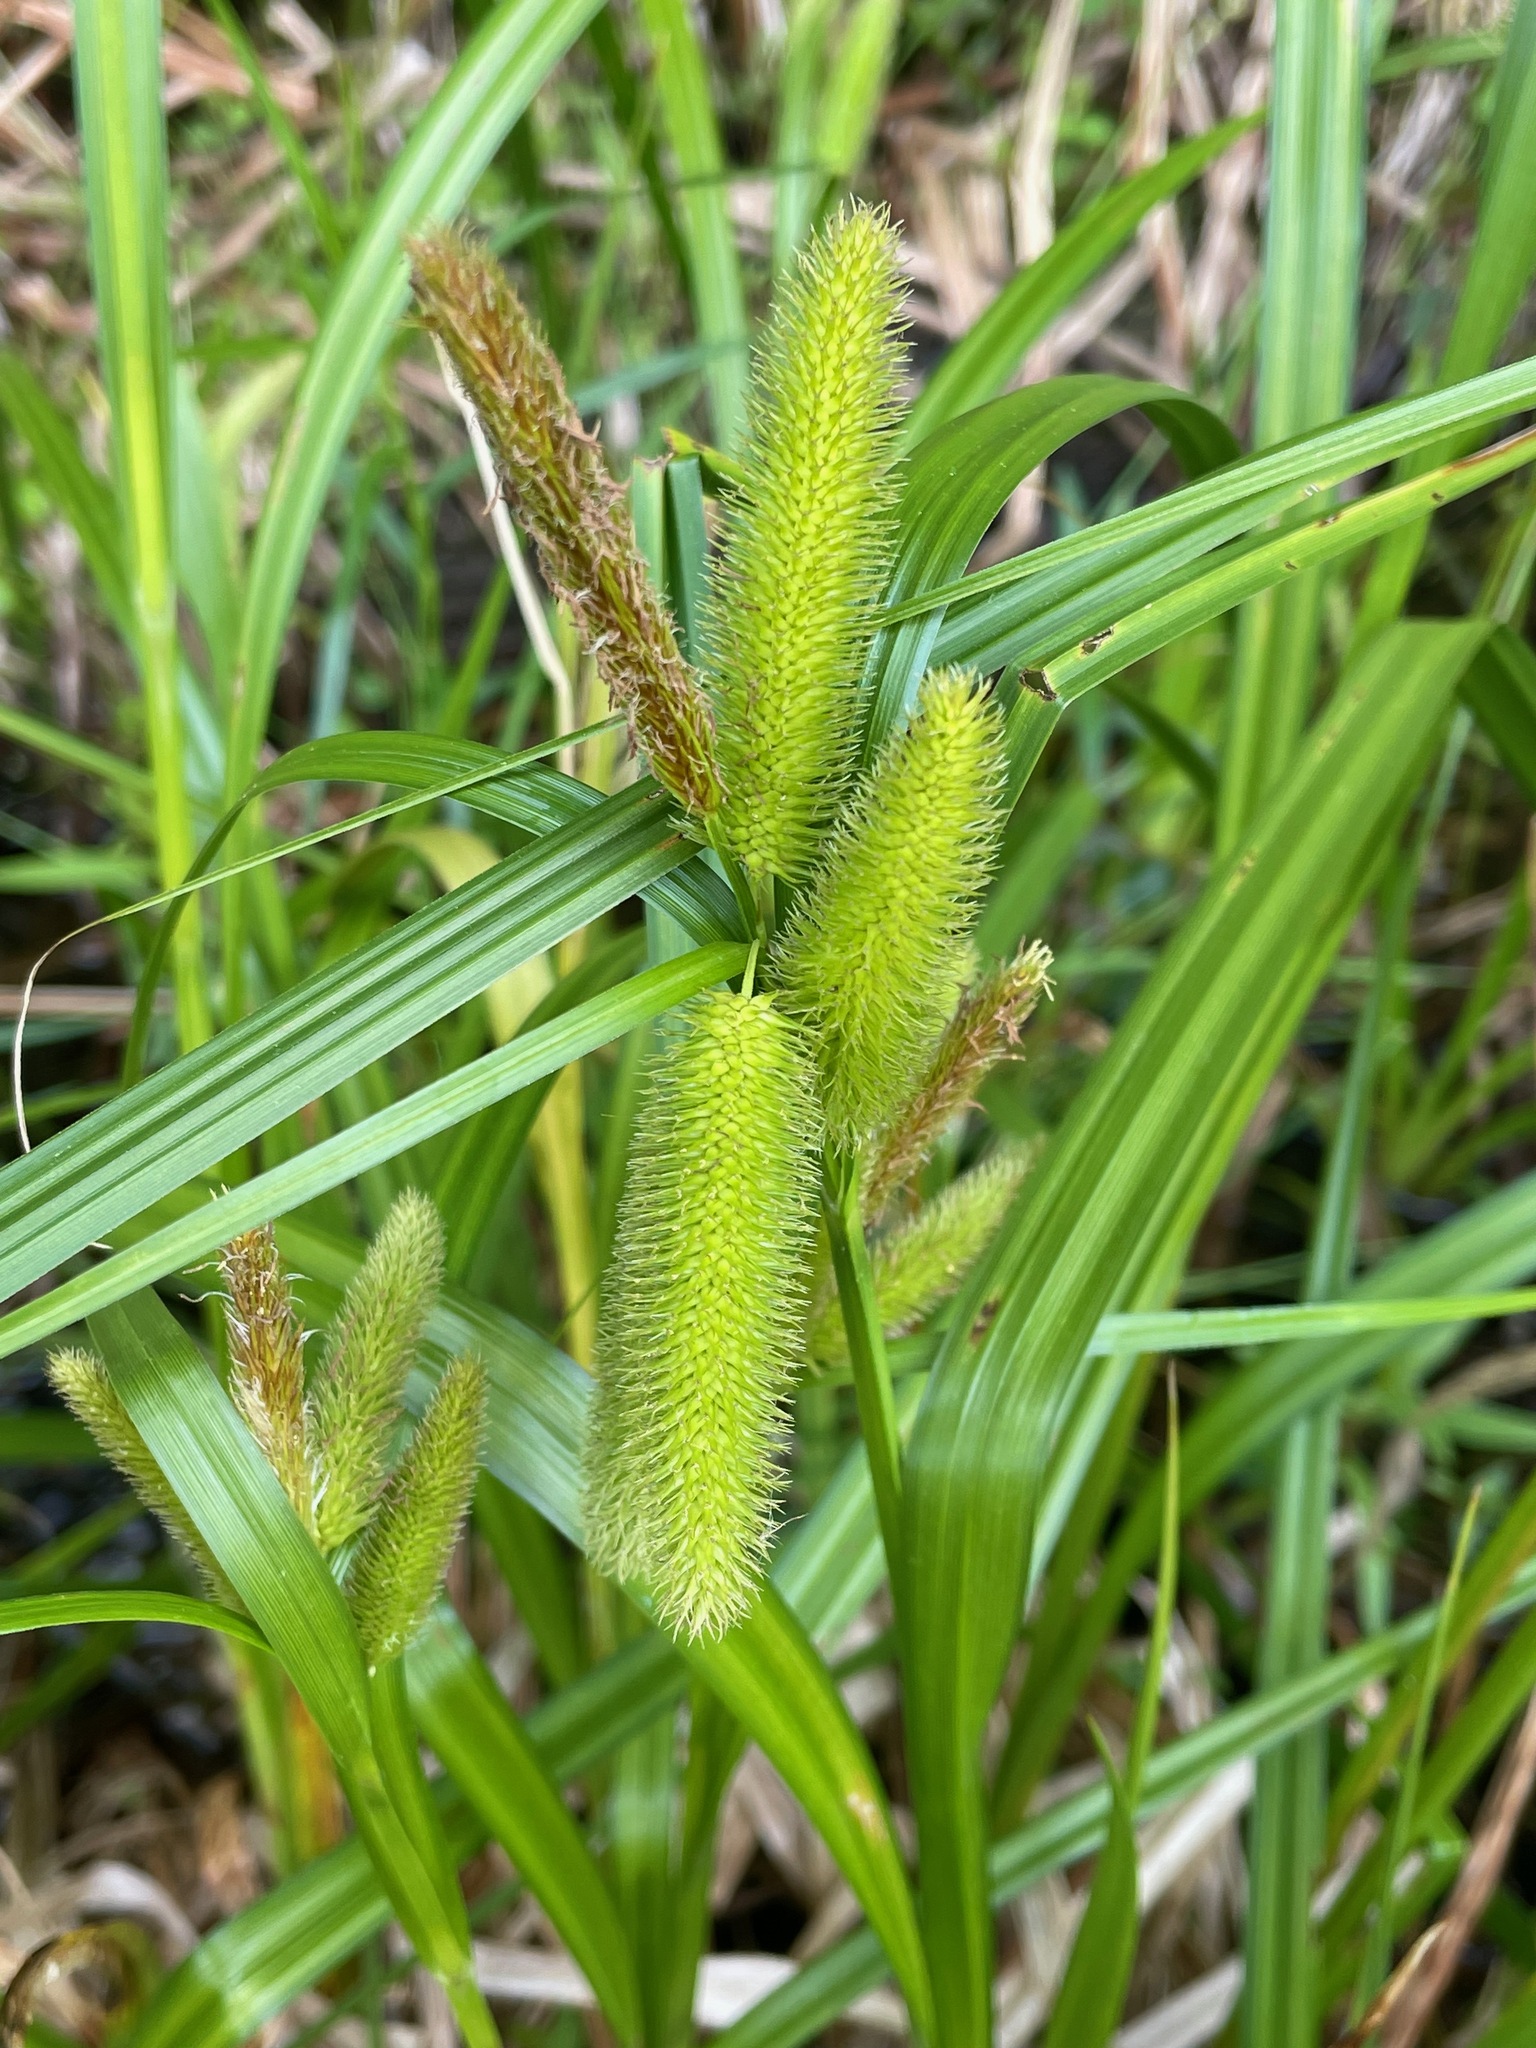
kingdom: Plantae
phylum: Tracheophyta
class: Liliopsida
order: Poales
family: Cyperaceae
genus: Carex
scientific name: Carex comosa
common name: Bristly sedge
